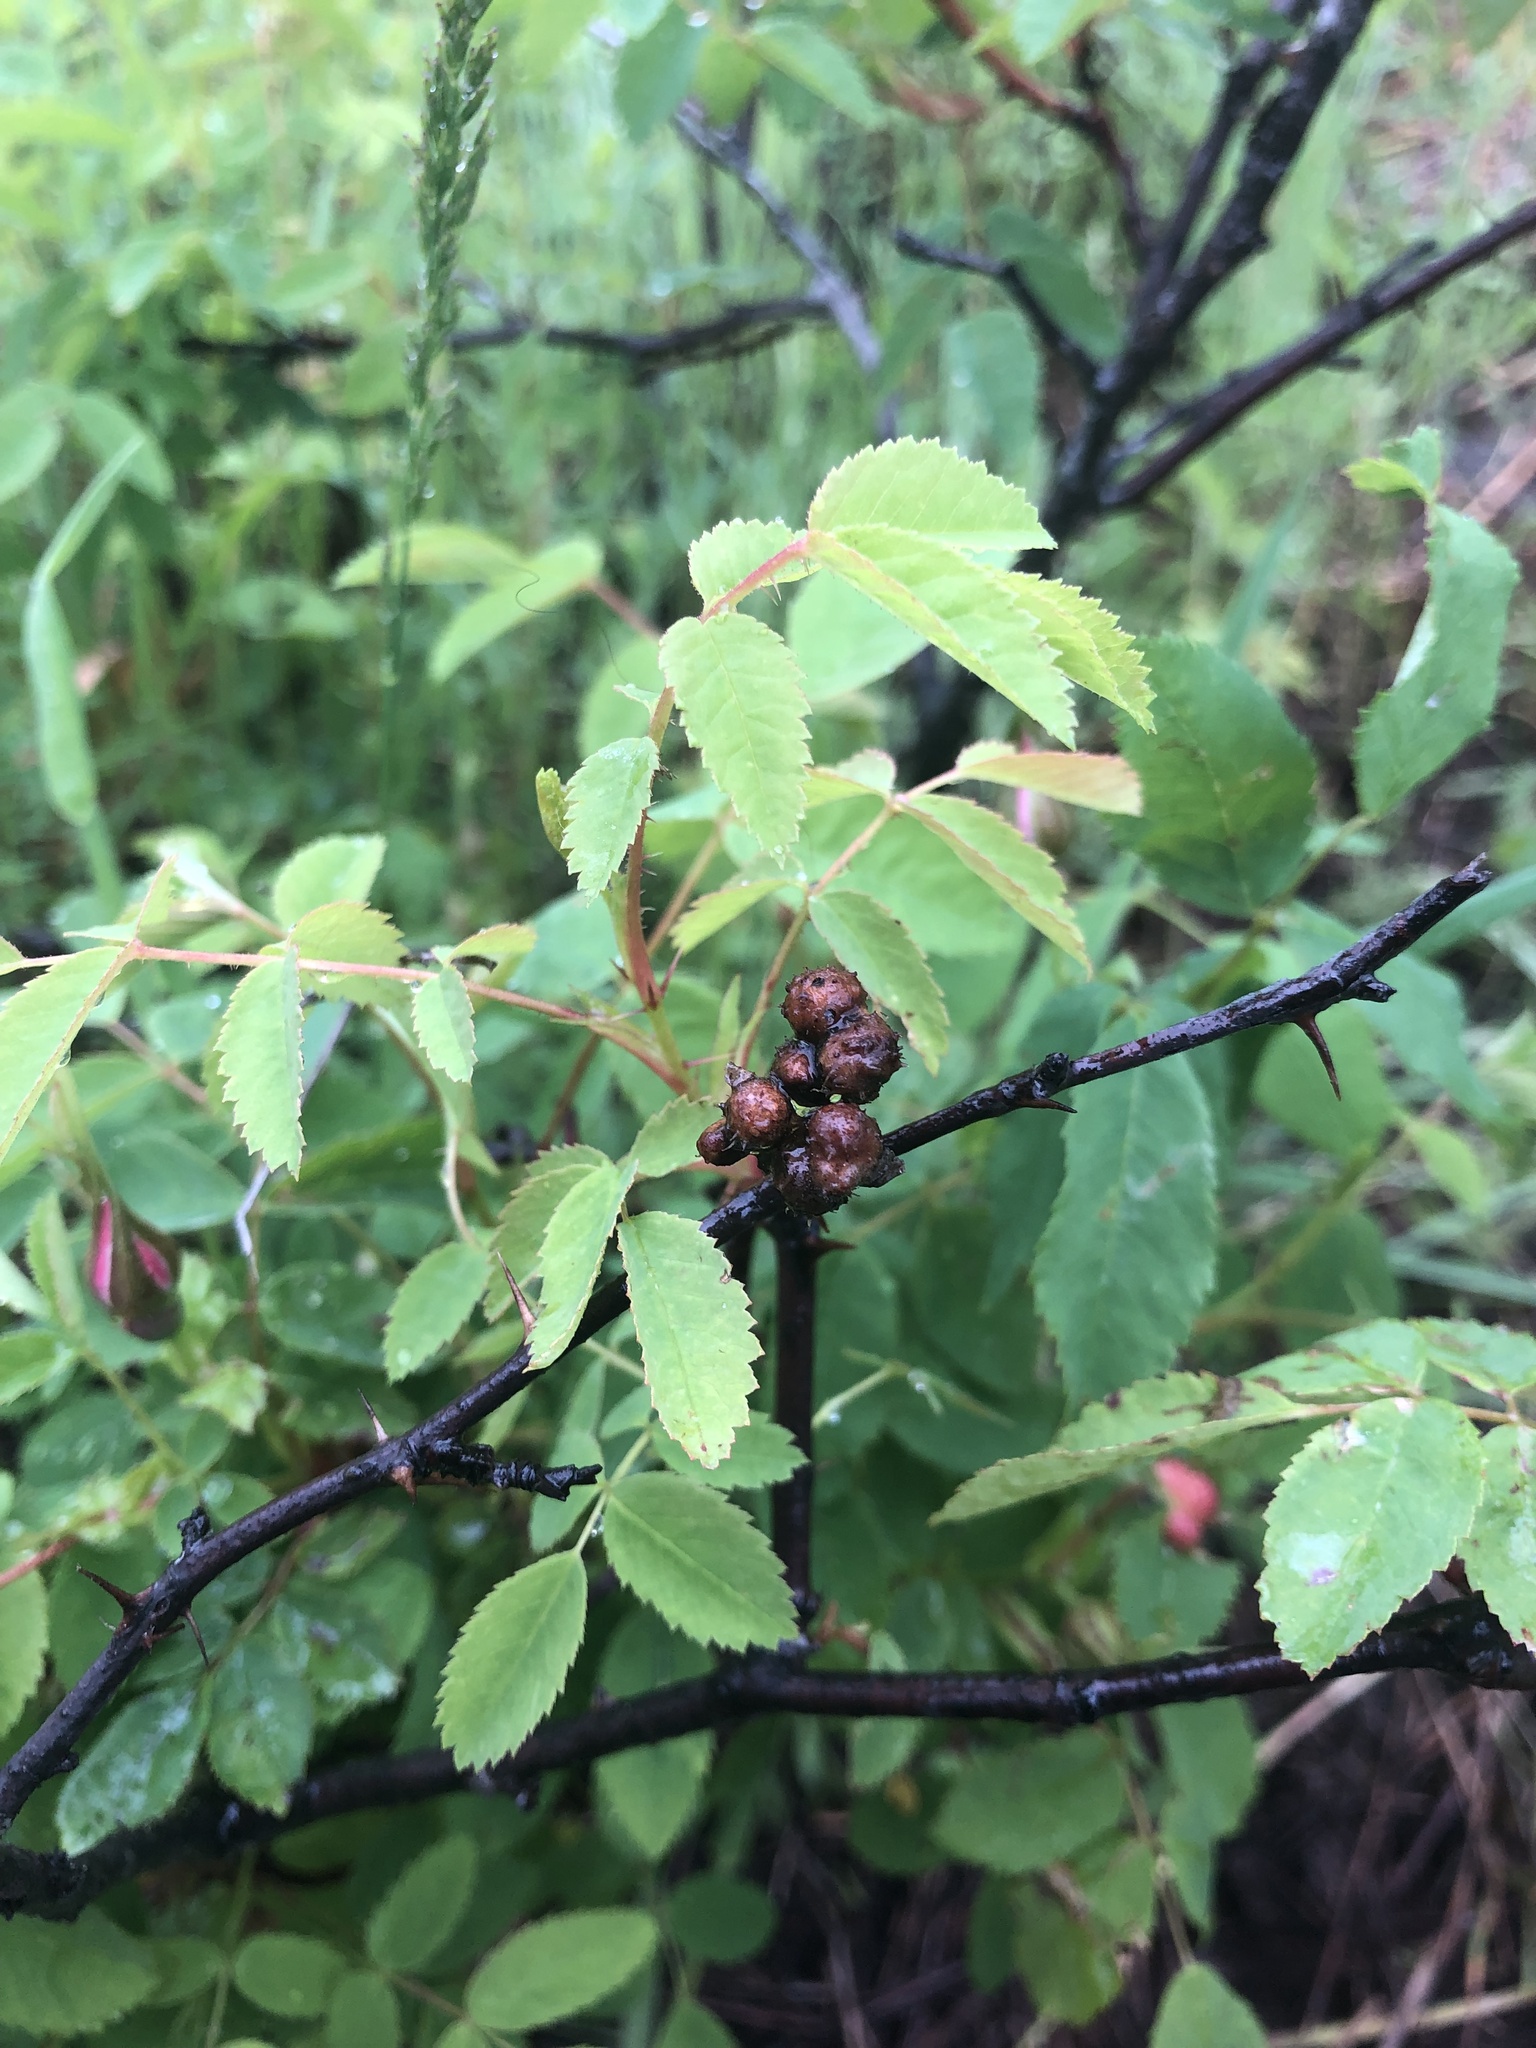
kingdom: Animalia
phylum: Arthropoda
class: Insecta
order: Hymenoptera
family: Cynipidae
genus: Diplolepis
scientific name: Diplolepis bicolor
